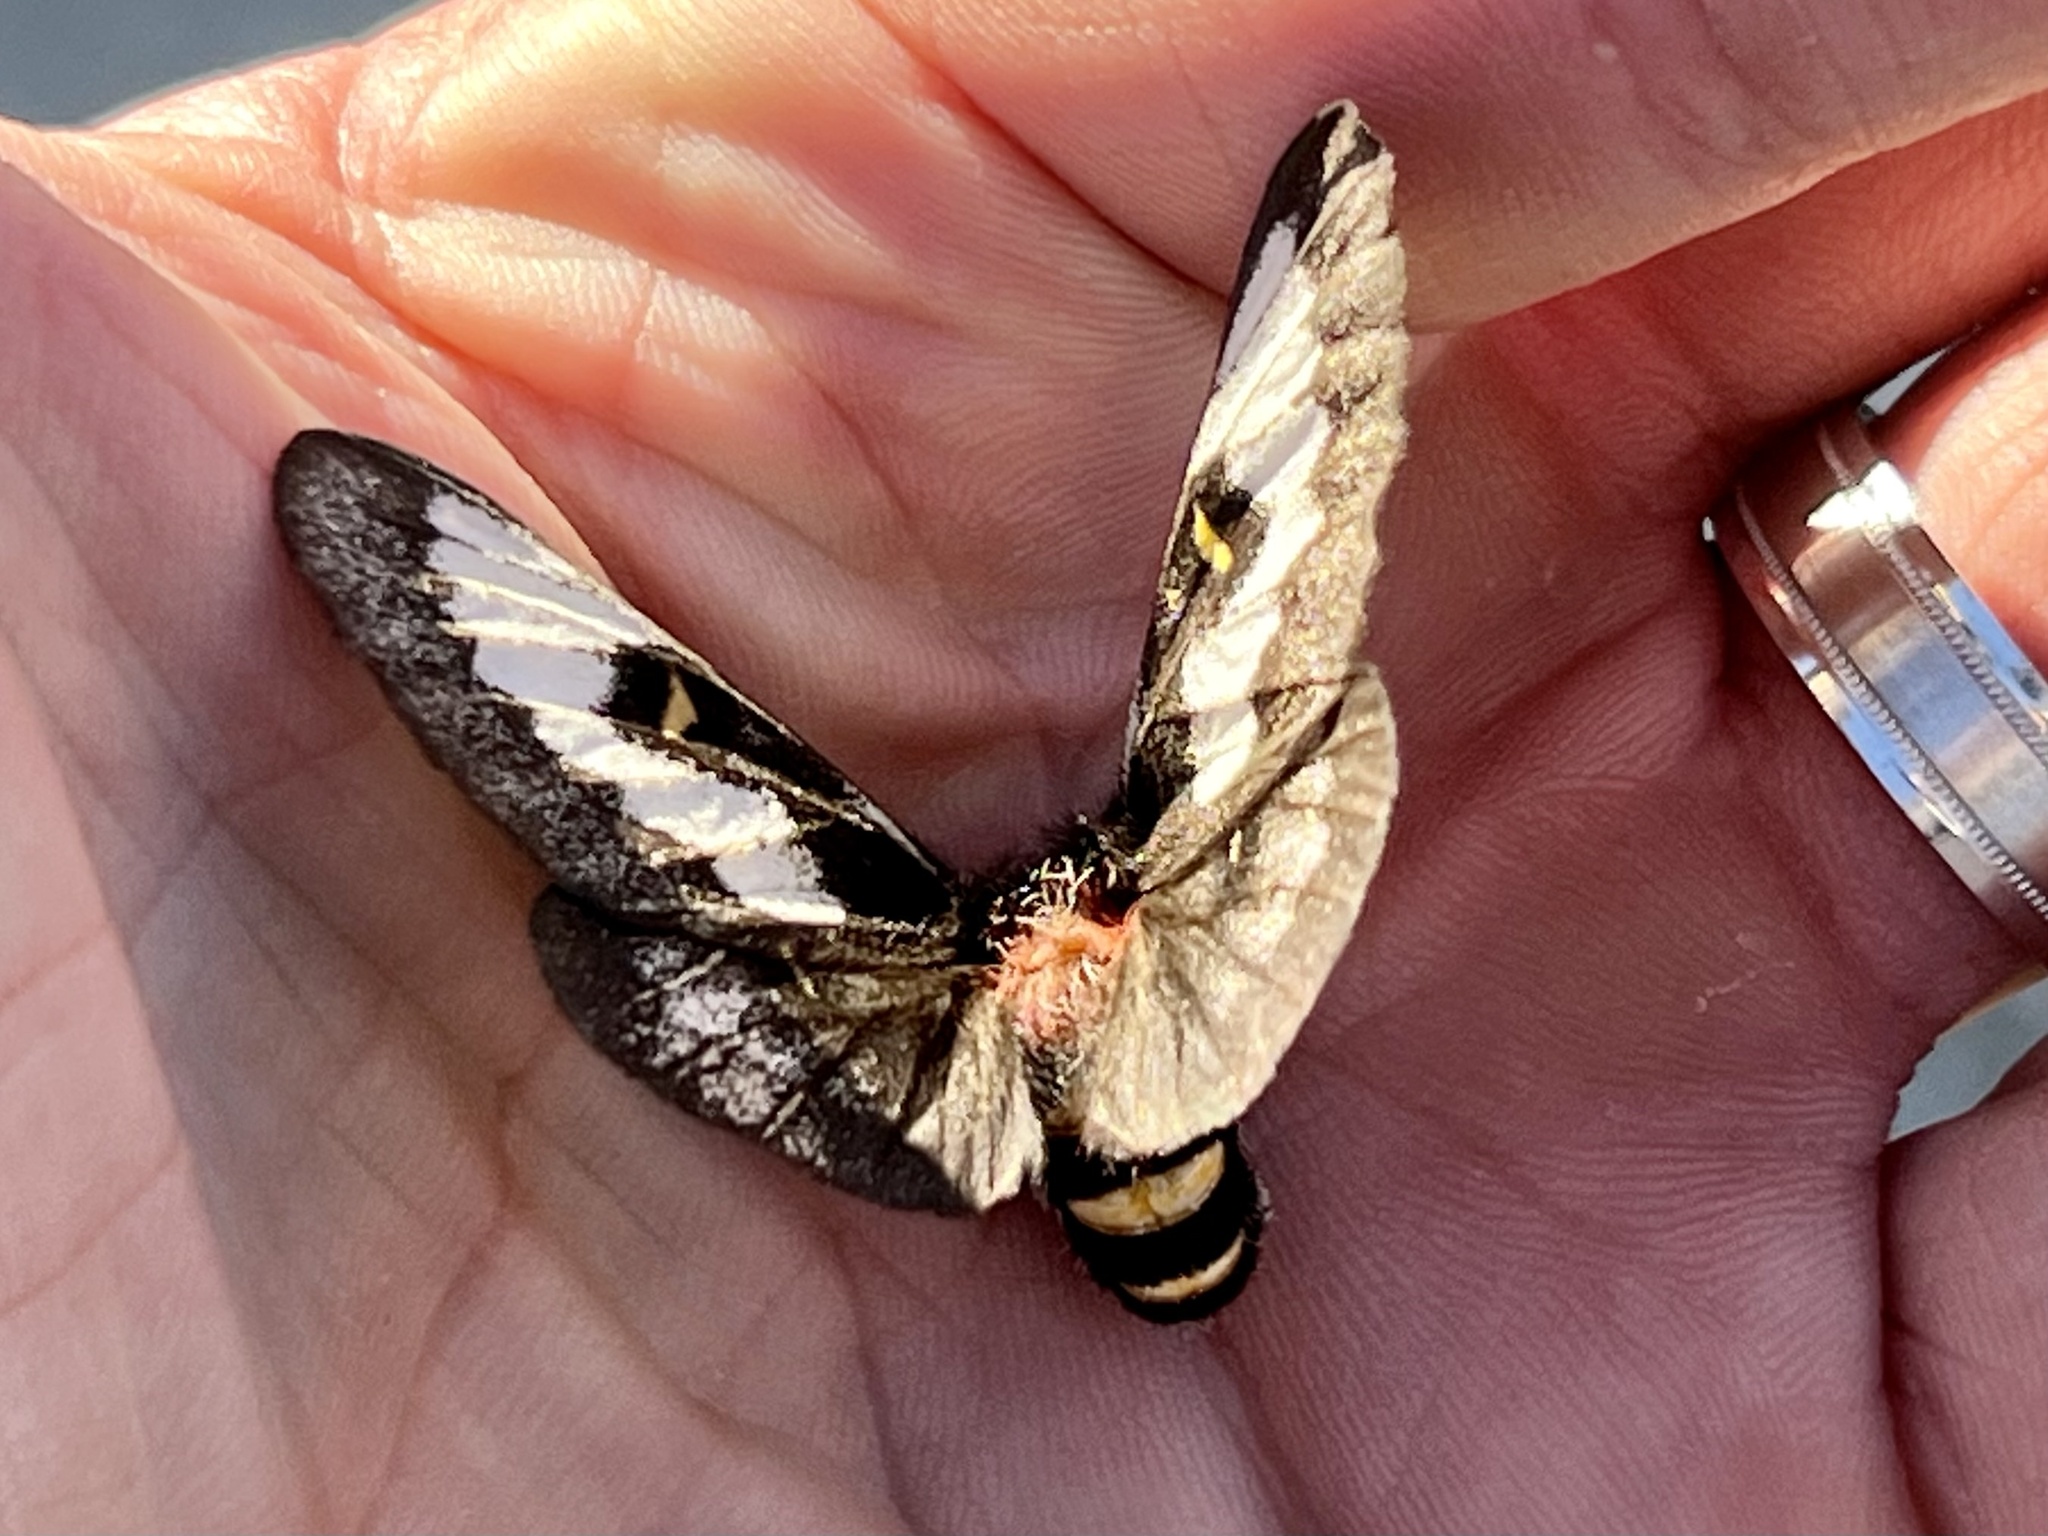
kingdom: Animalia
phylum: Arthropoda
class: Insecta
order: Lepidoptera
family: Saturniidae
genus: Hemileuca
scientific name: Hemileuca juno
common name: Juno buckmoth
